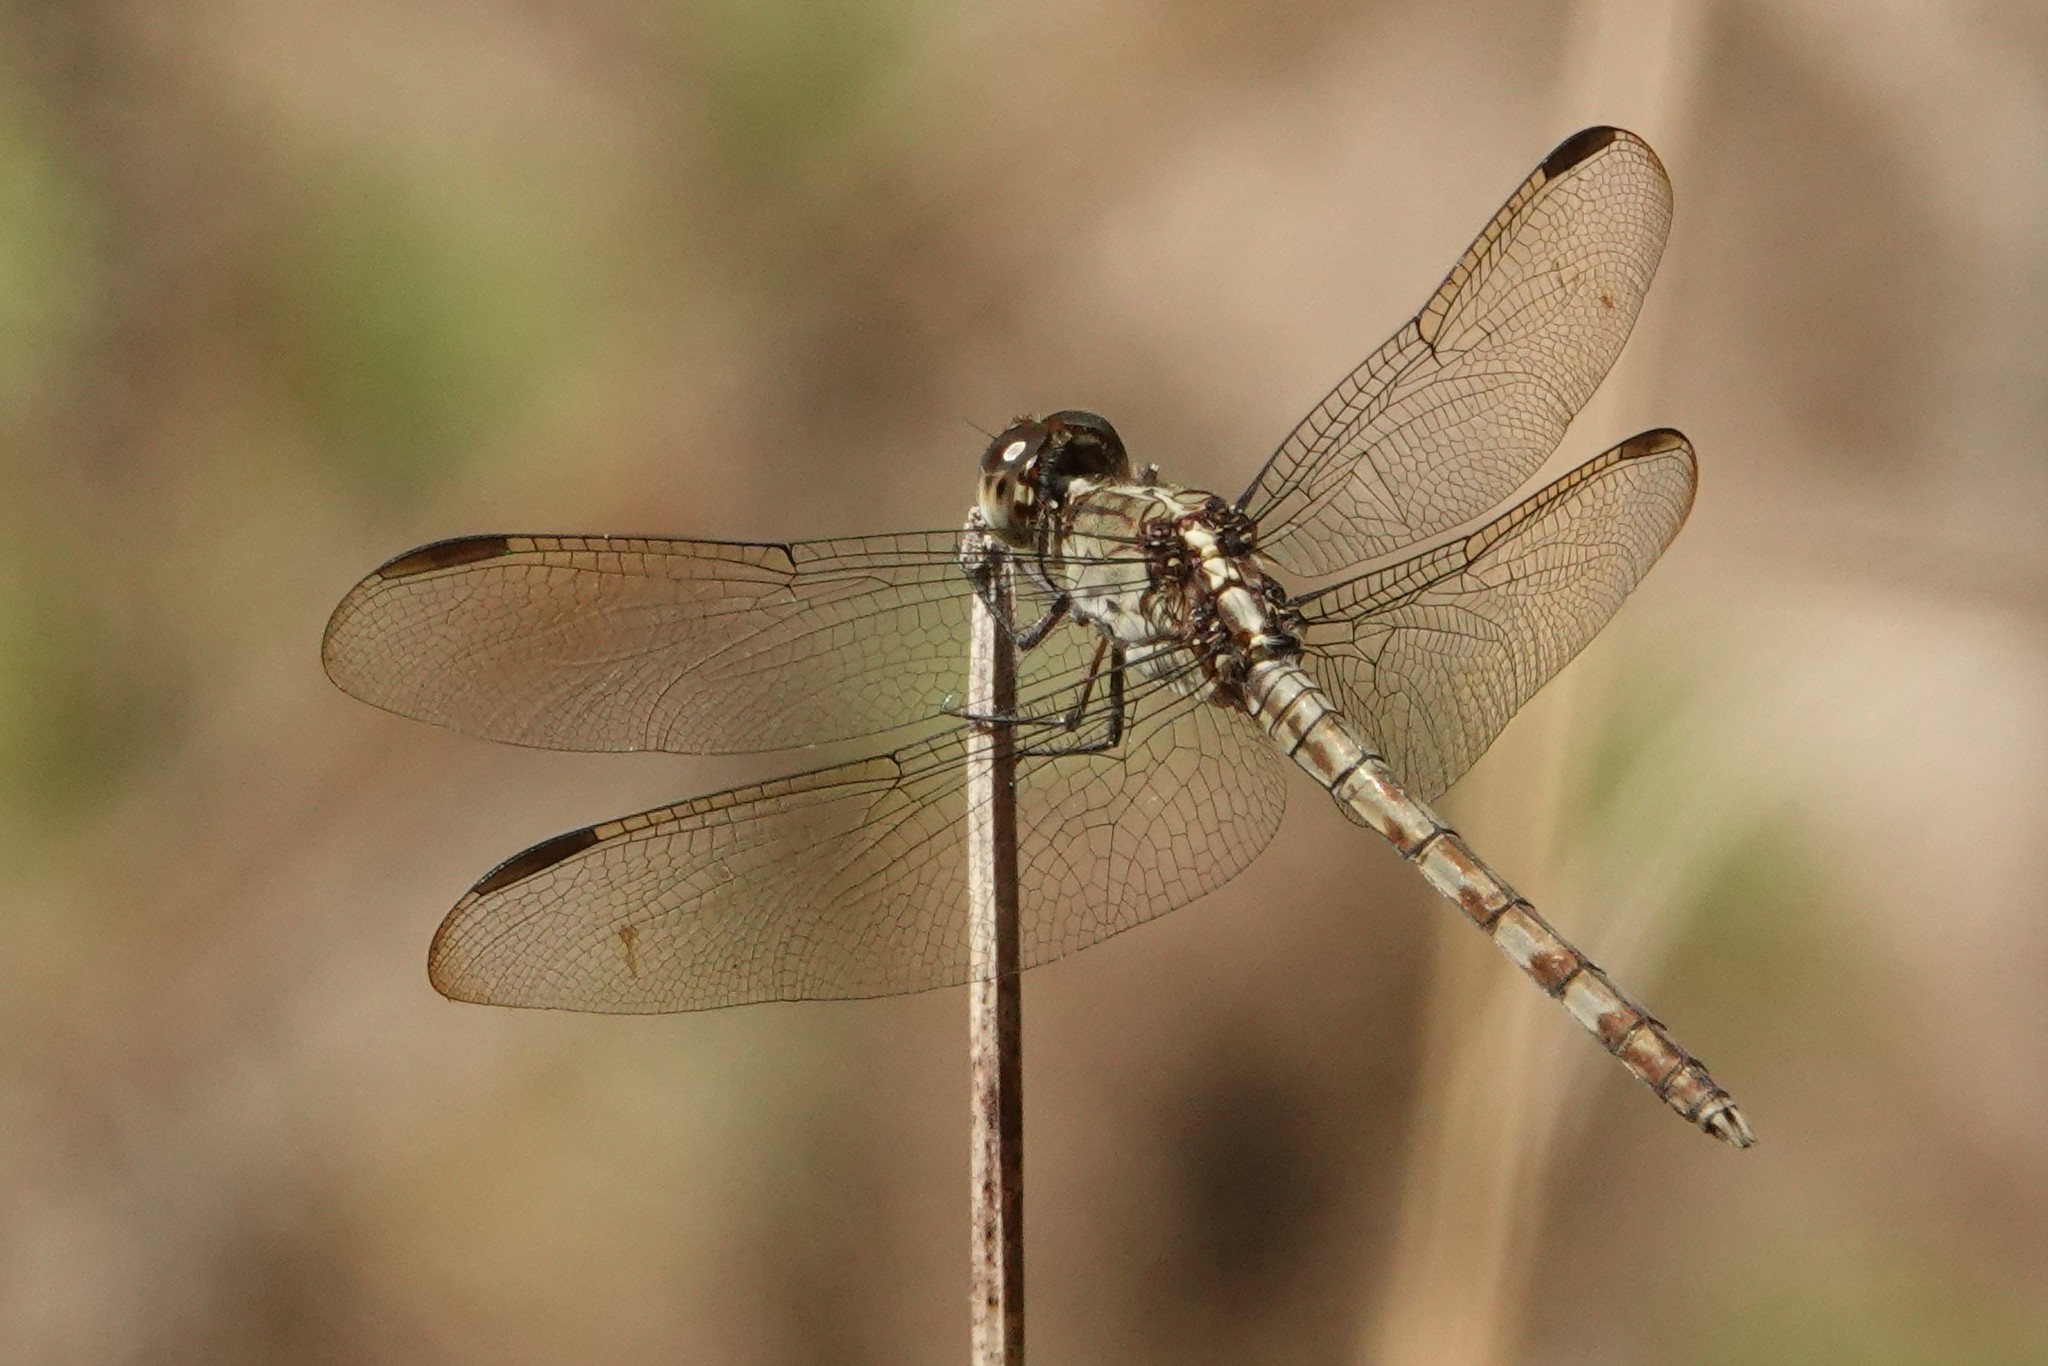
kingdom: Animalia
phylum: Arthropoda
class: Insecta
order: Odonata
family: Libellulidae
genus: Erythrodiplax
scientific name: Erythrodiplax umbrata
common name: Band-winged dragonlet
